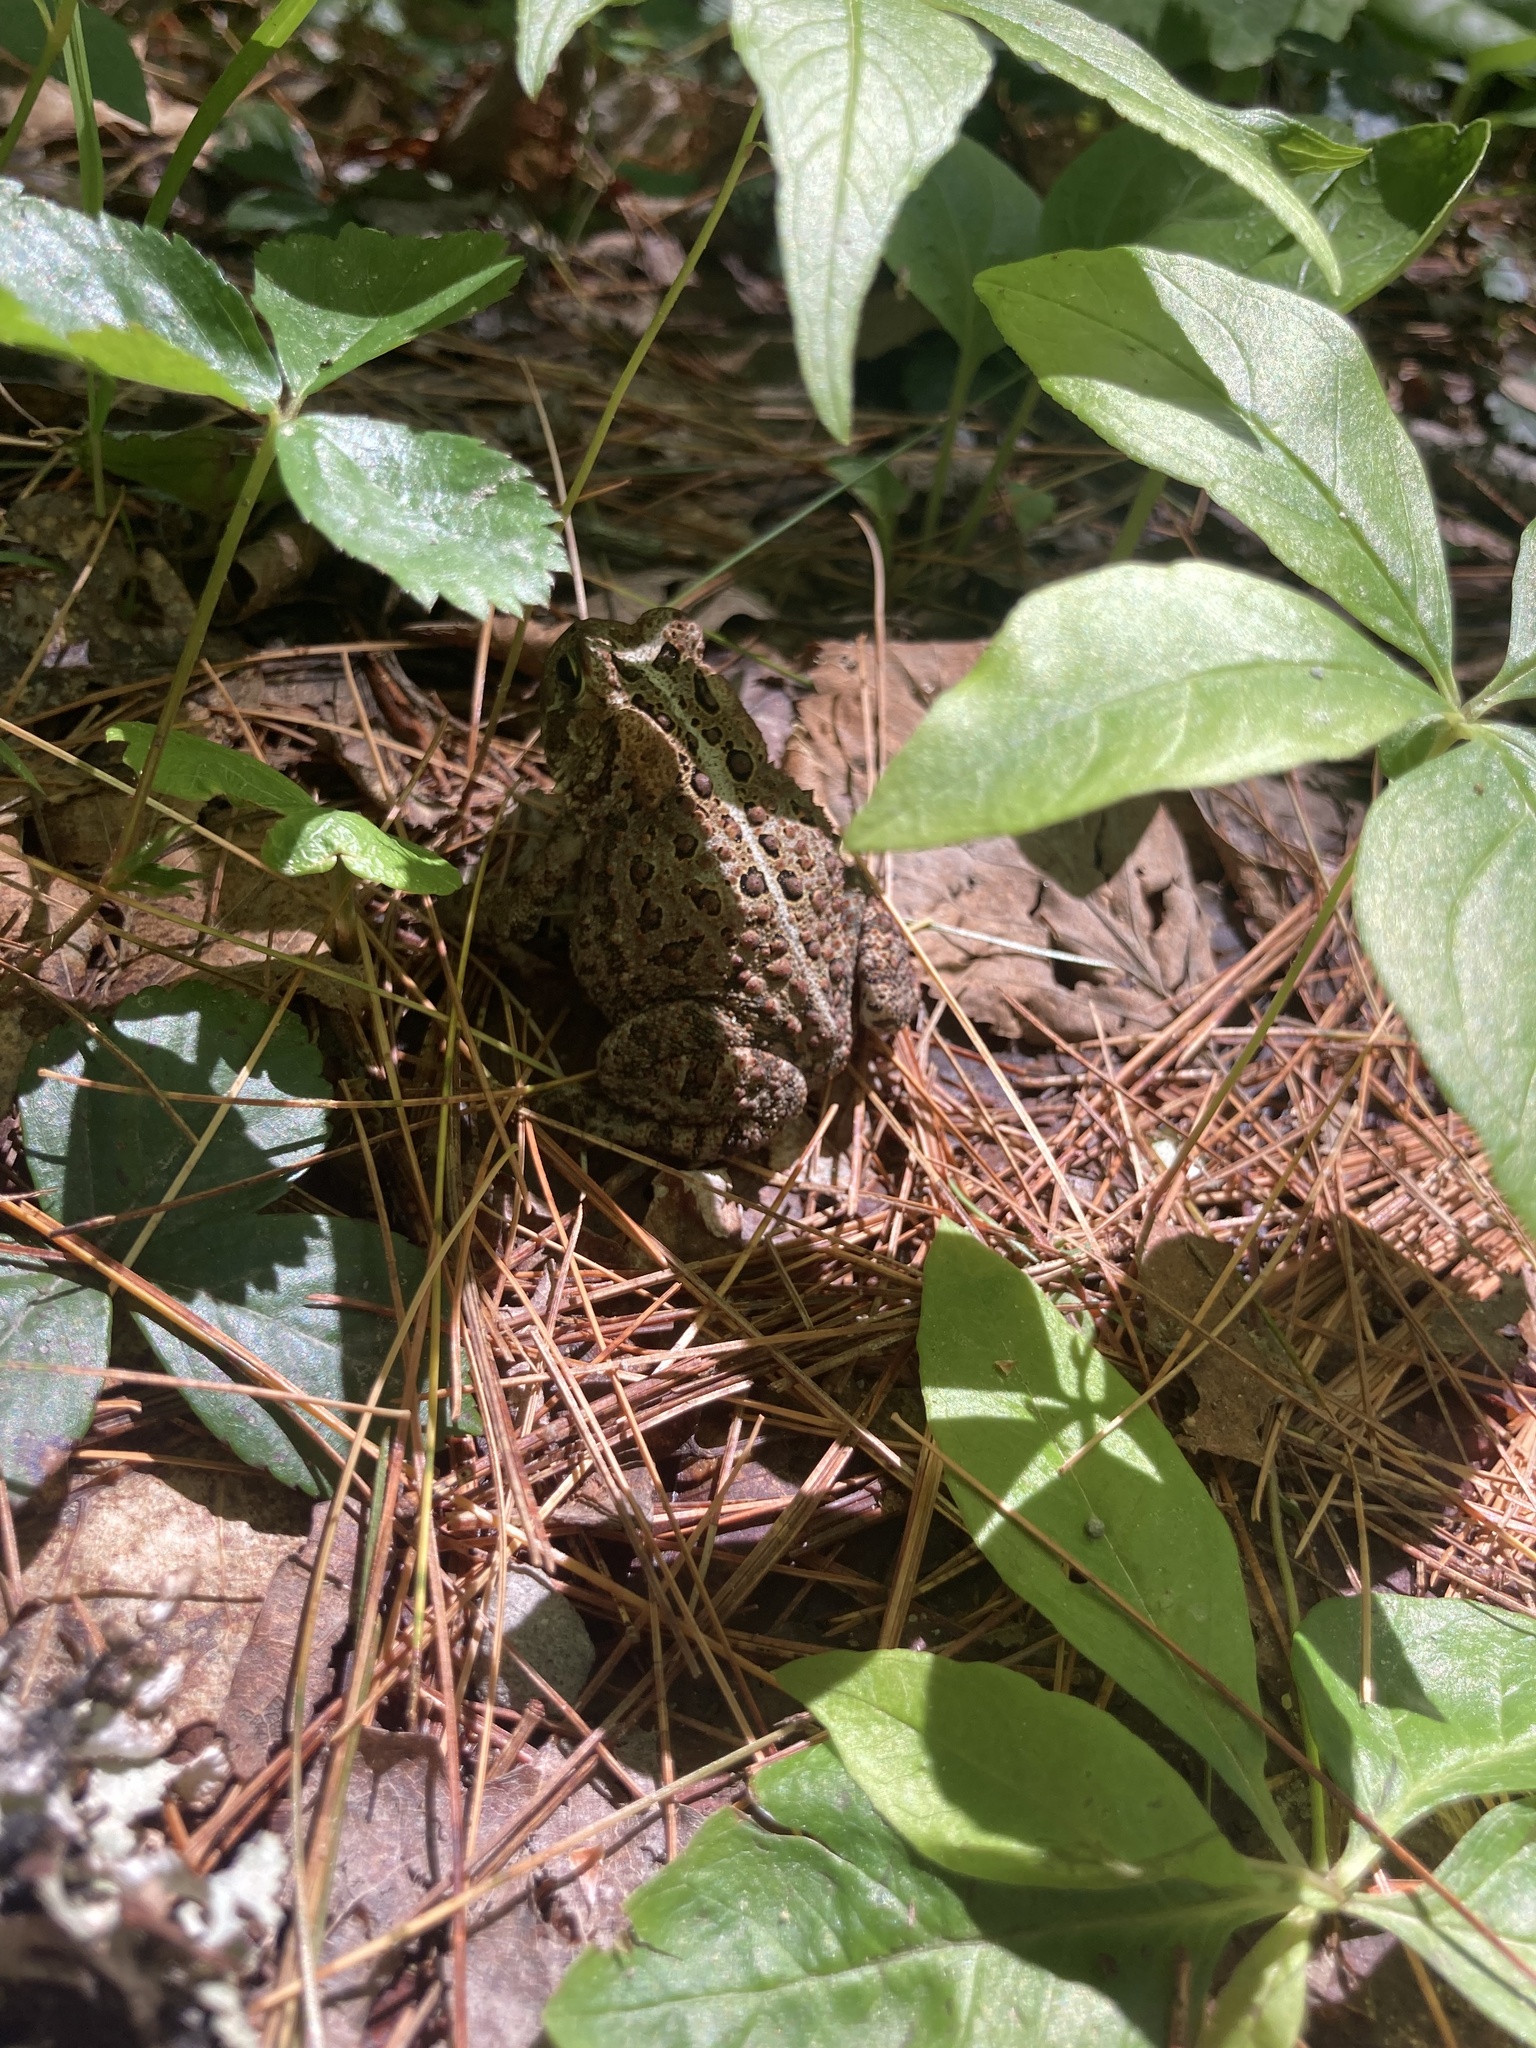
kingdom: Animalia
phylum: Chordata
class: Amphibia
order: Anura
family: Bufonidae
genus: Anaxyrus
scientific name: Anaxyrus americanus
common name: American toad
